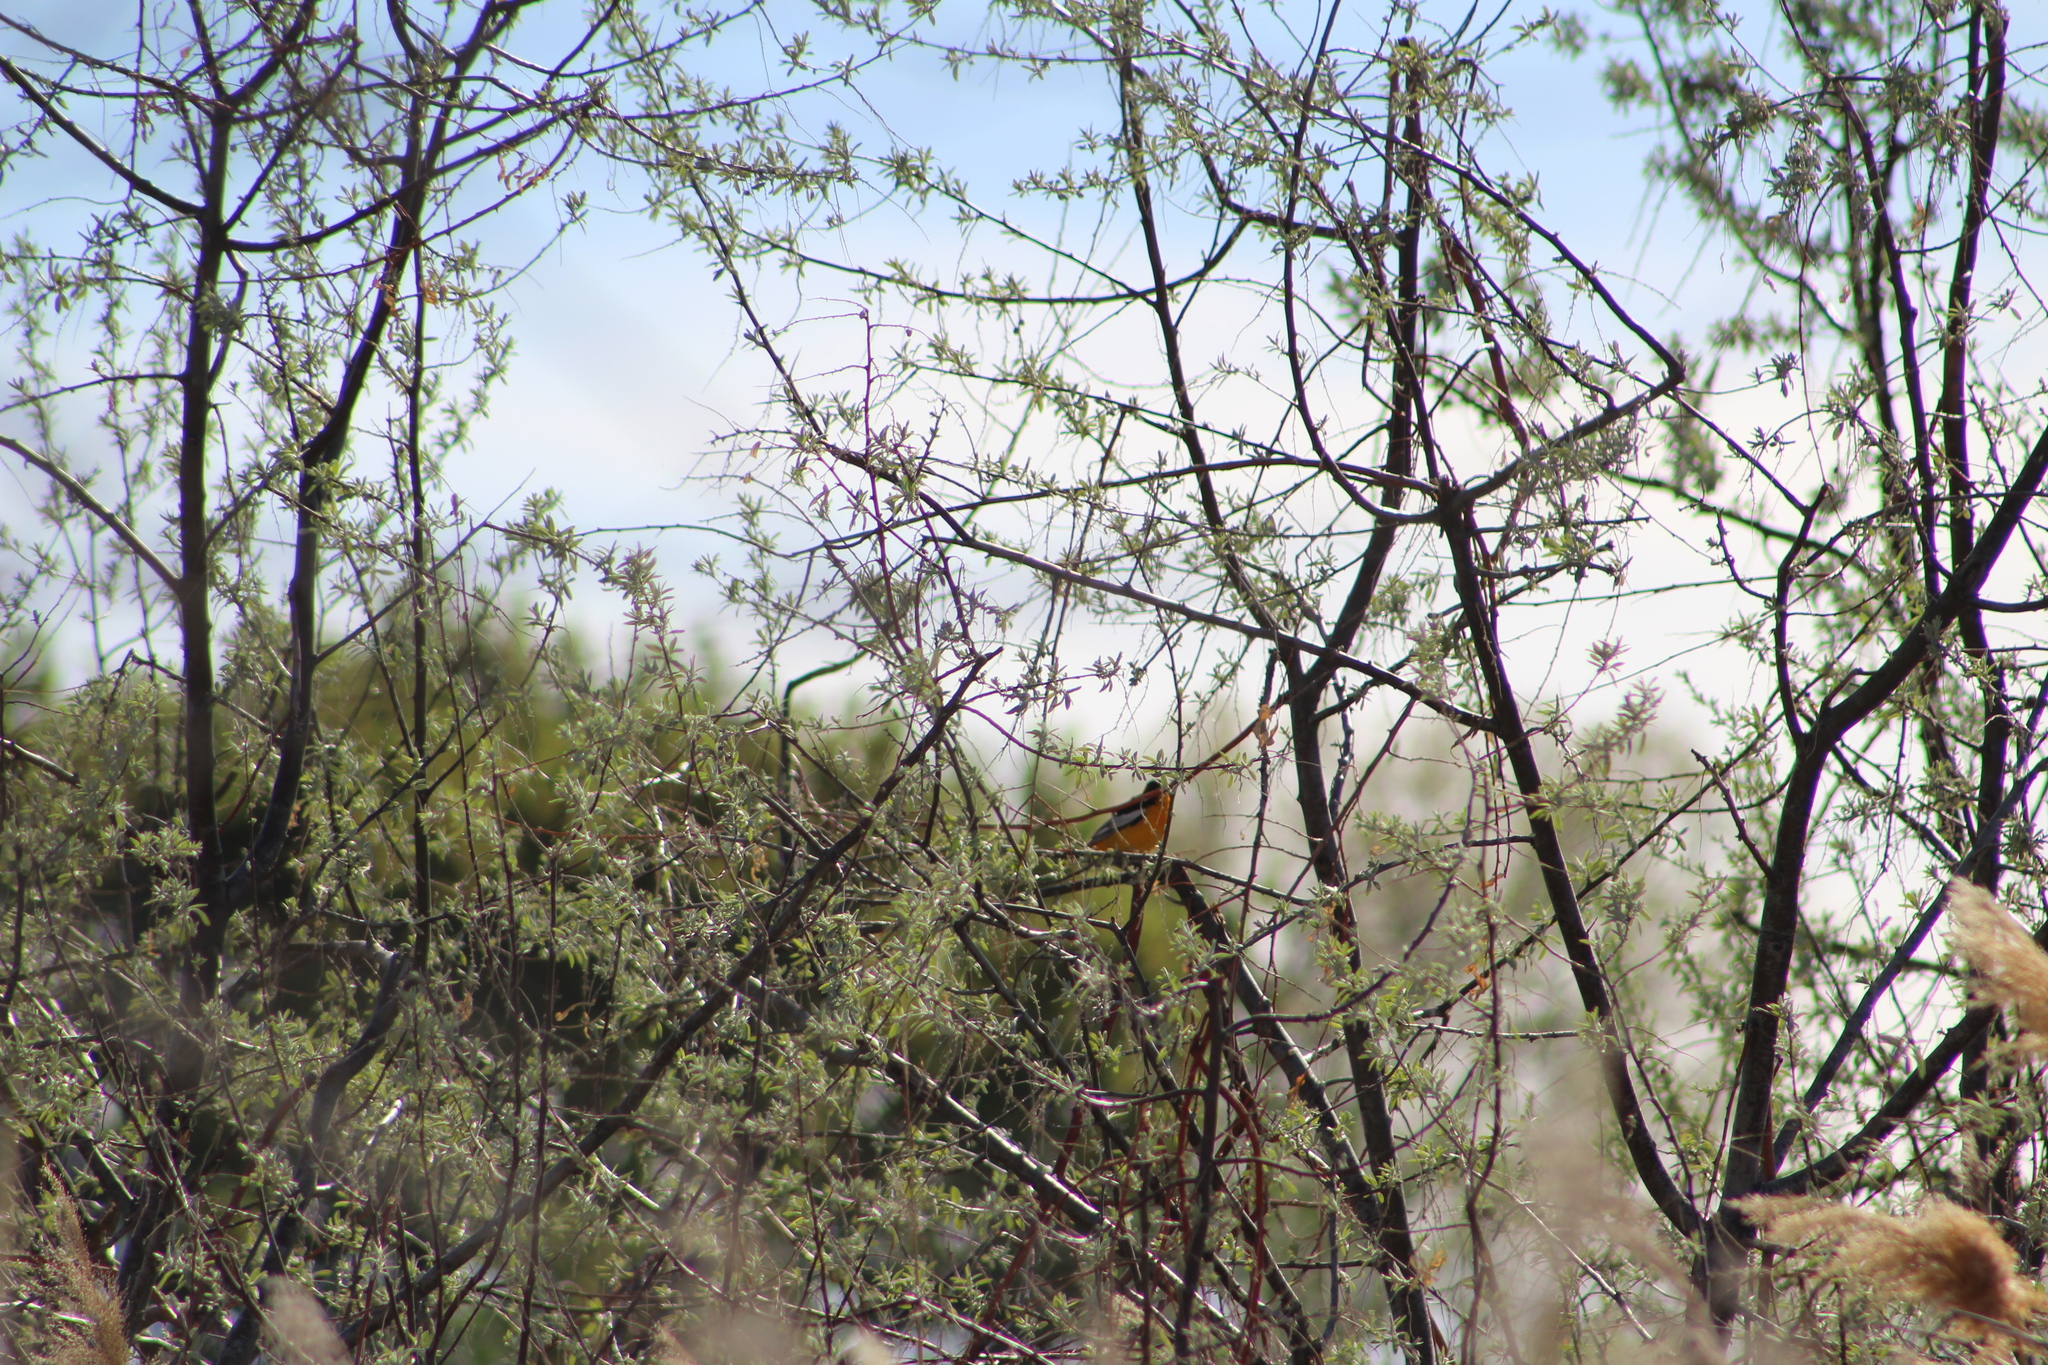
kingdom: Animalia
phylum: Chordata
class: Aves
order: Passeriformes
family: Icteridae
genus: Icterus
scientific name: Icterus bullockii
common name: Bullock's oriole
